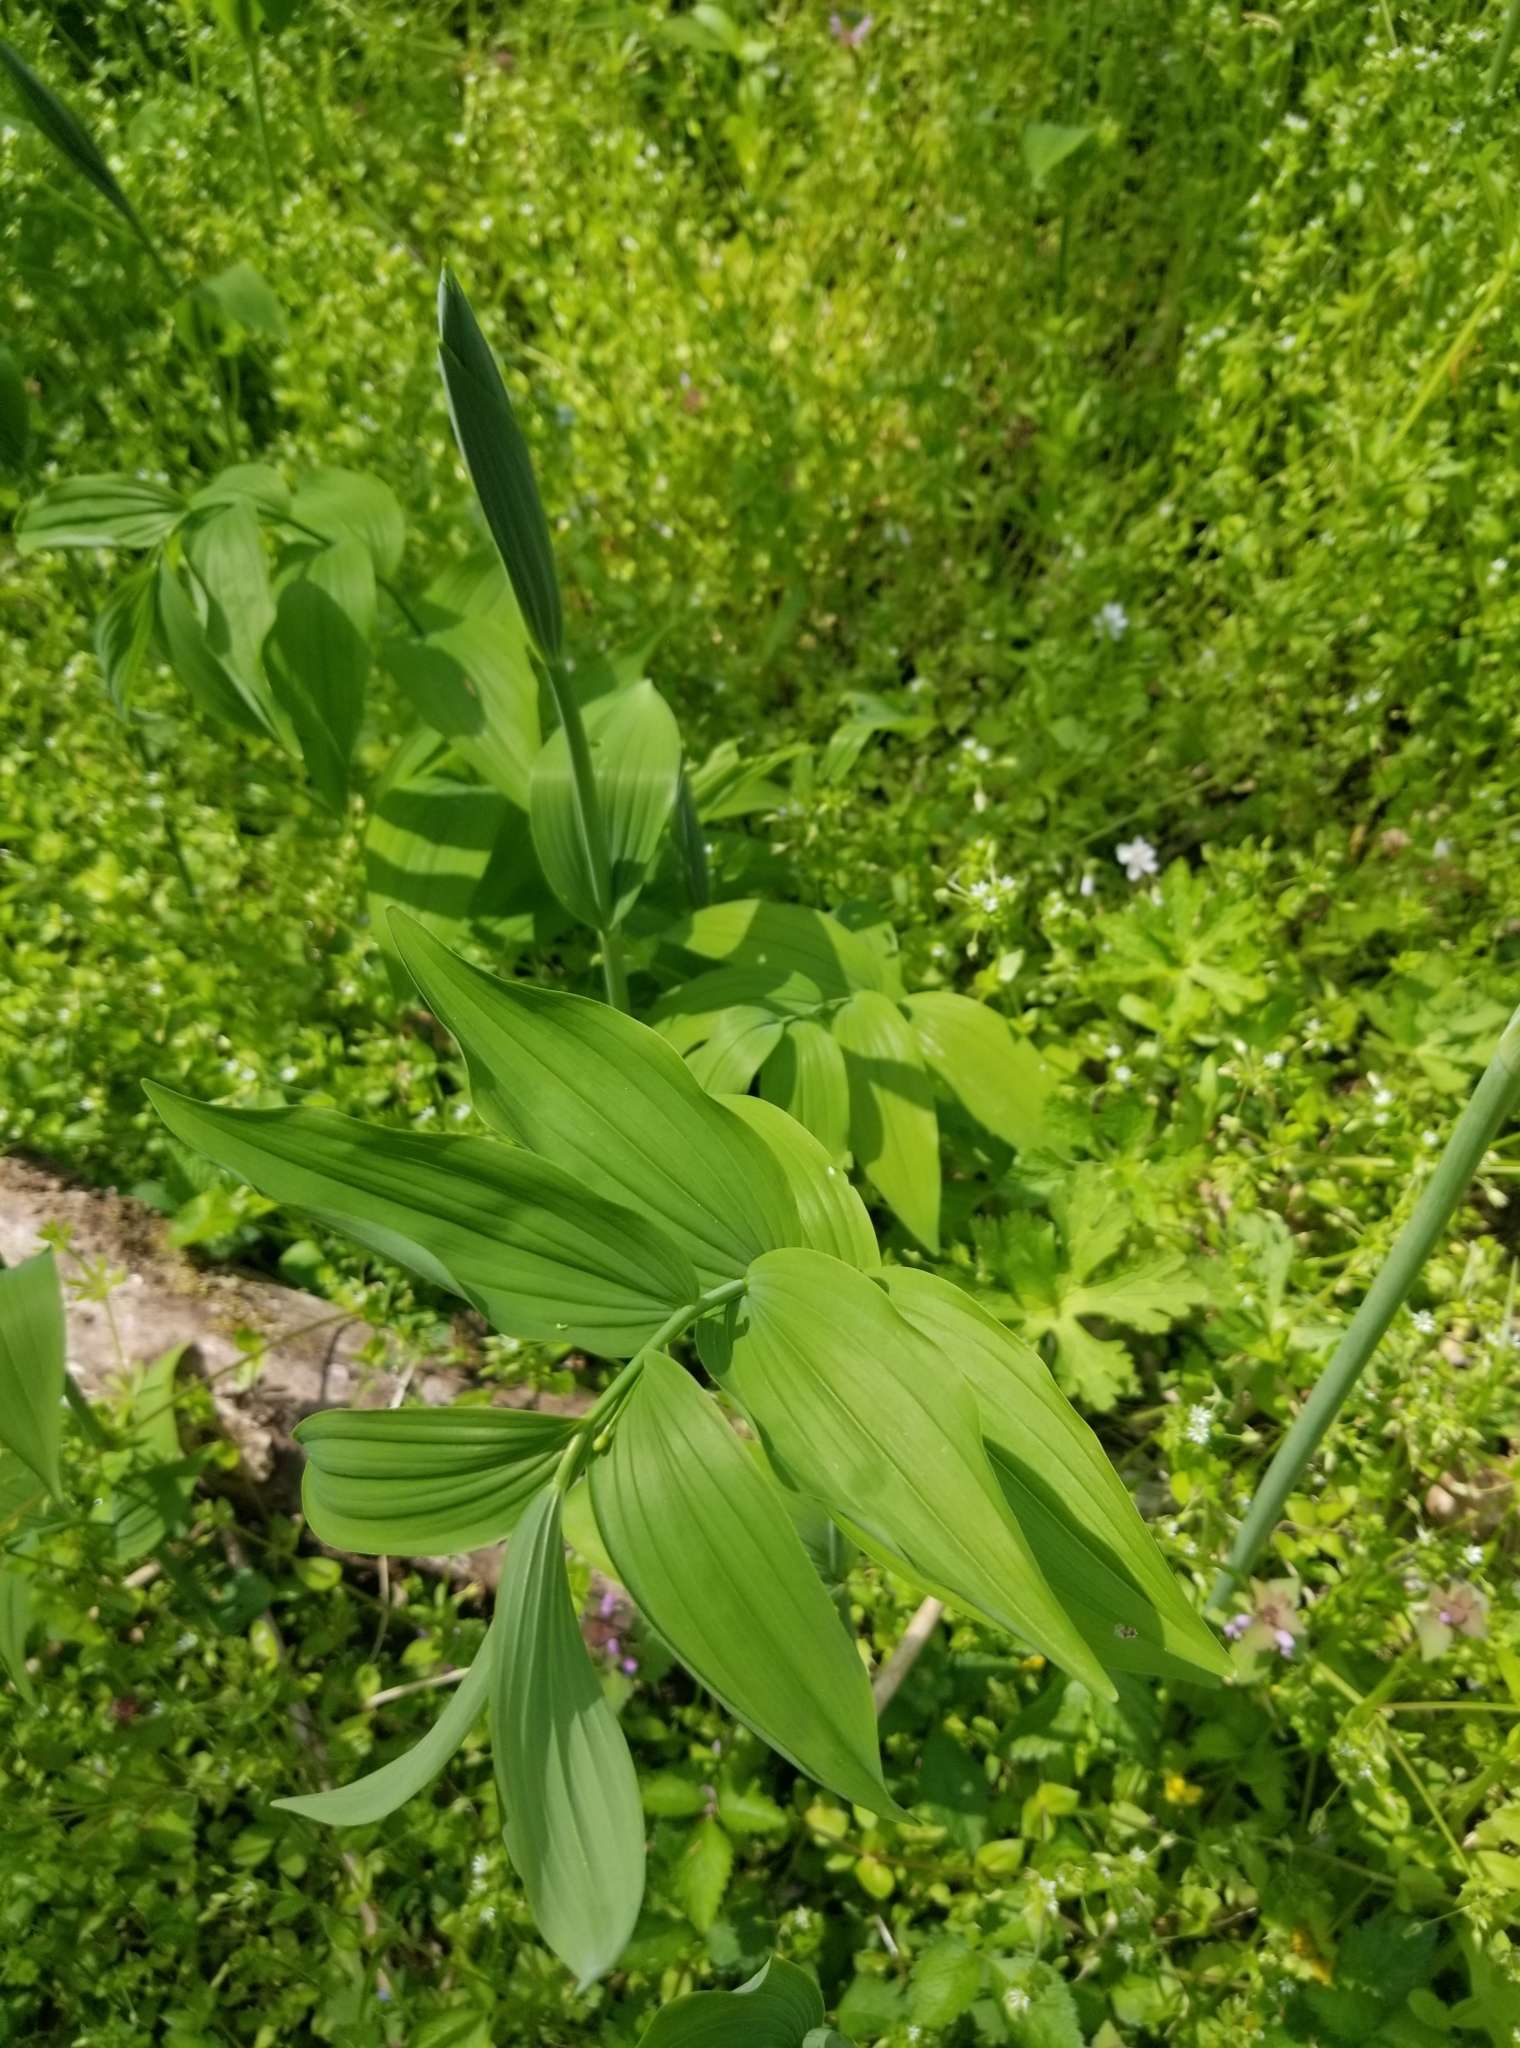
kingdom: Plantae
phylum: Tracheophyta
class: Liliopsida
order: Asparagales
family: Asparagaceae
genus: Polygonatum
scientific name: Polygonatum biflorum
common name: American solomon's-seal
